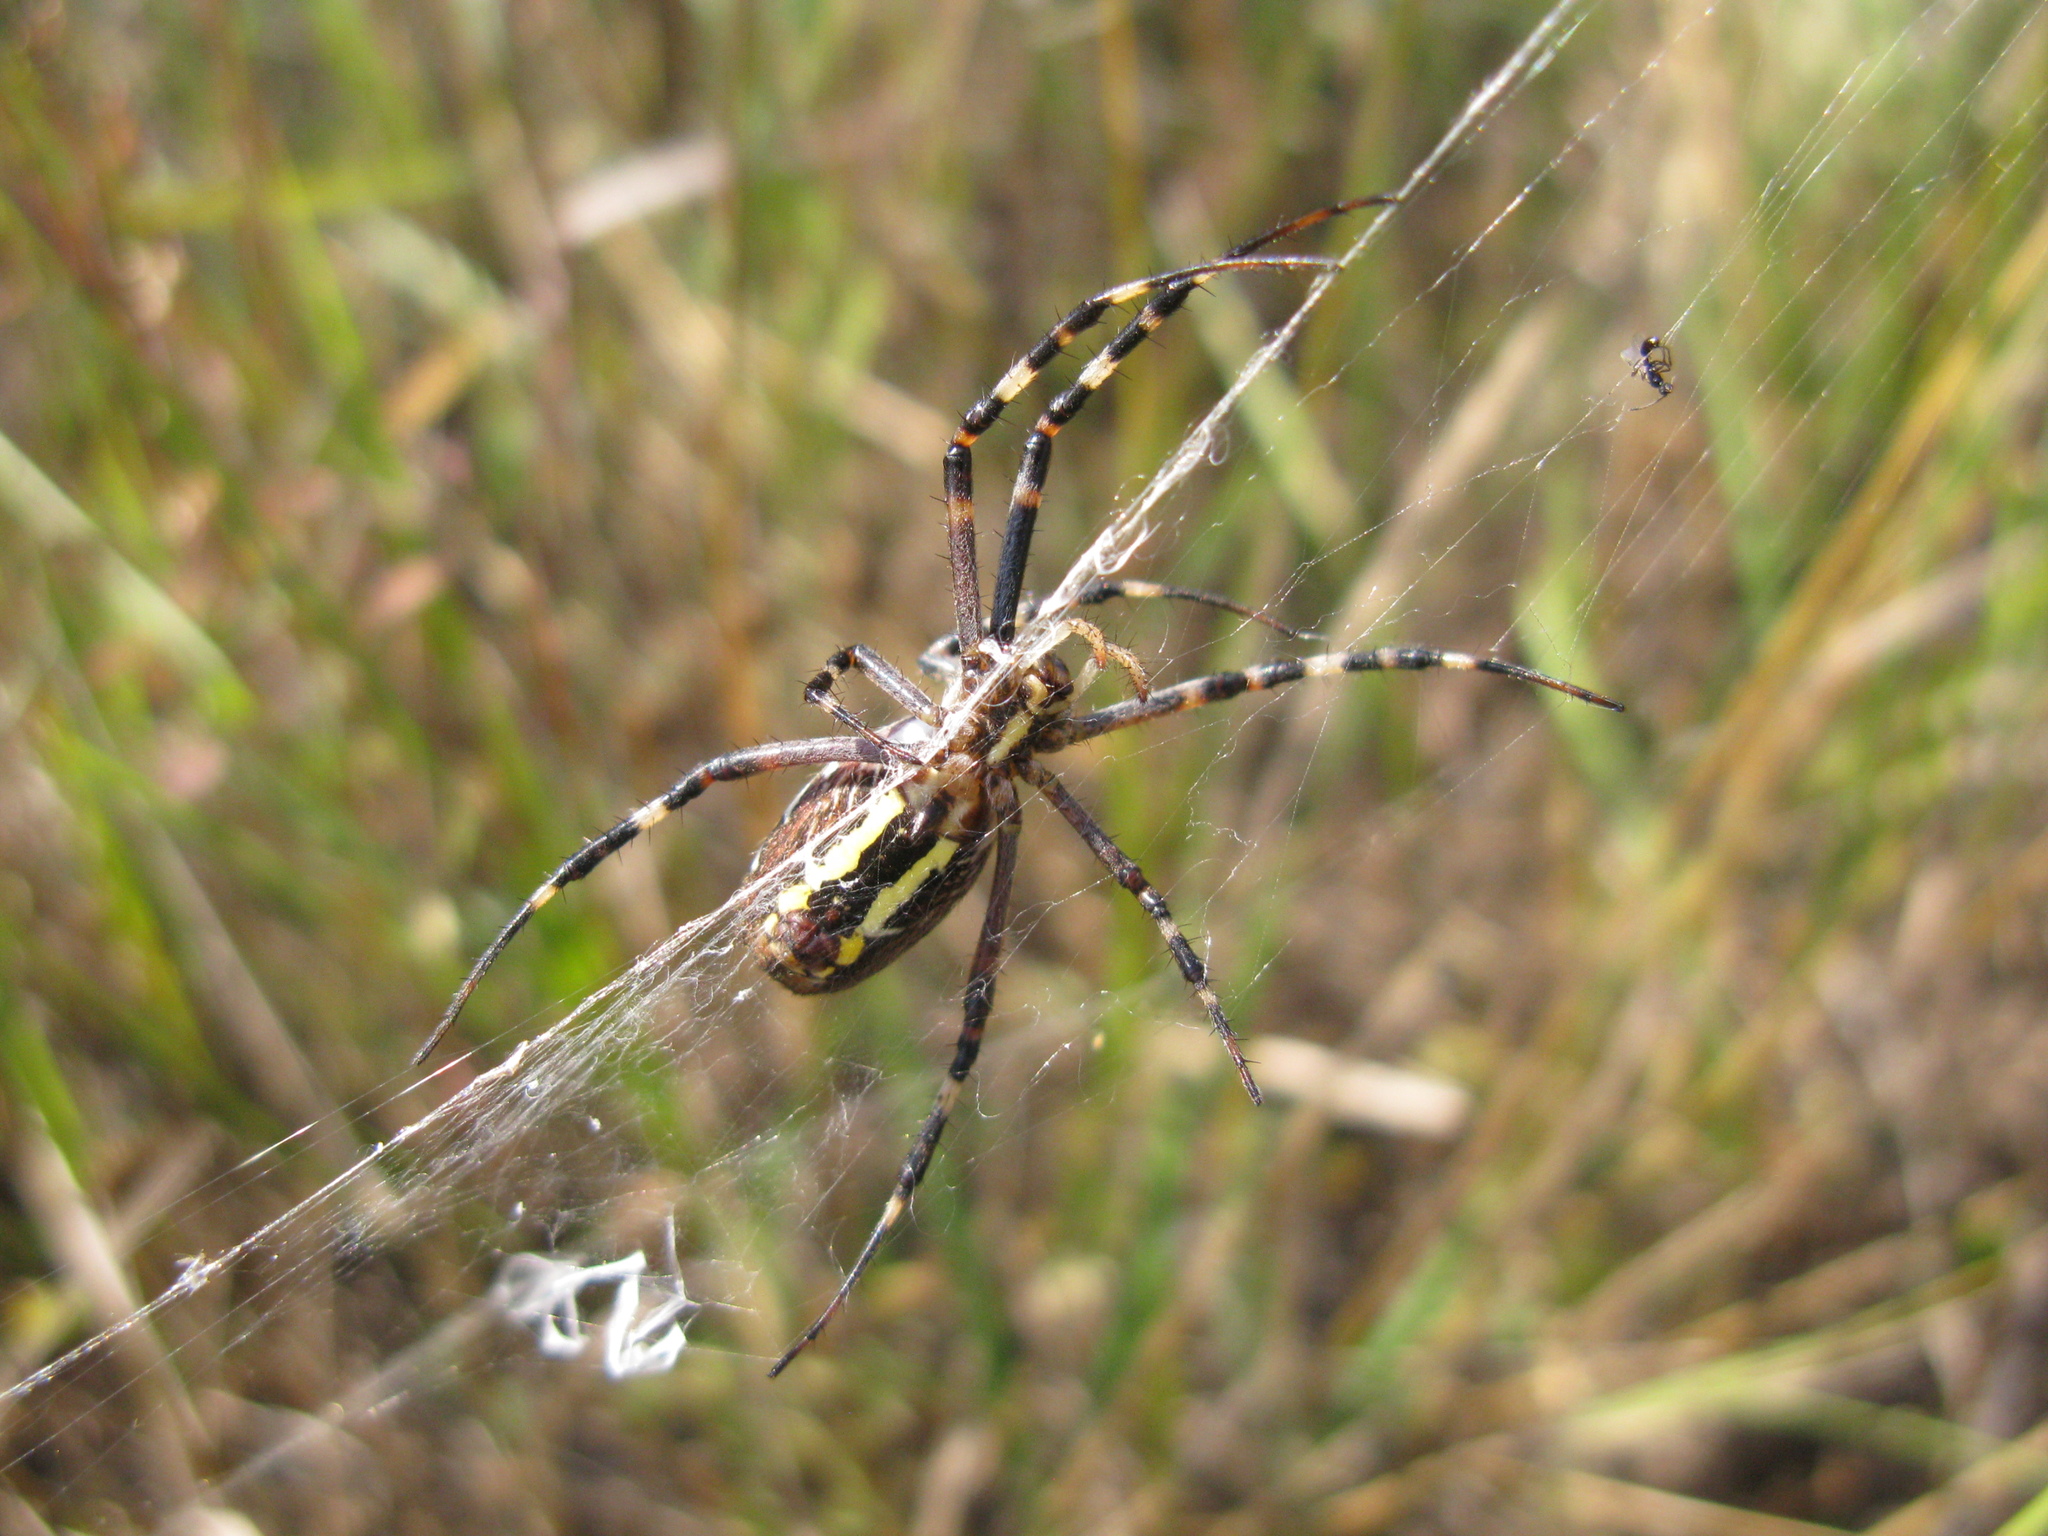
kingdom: Animalia
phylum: Arthropoda
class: Arachnida
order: Araneae
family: Araneidae
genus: Argiope
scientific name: Argiope bruennichi
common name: Wasp spider
